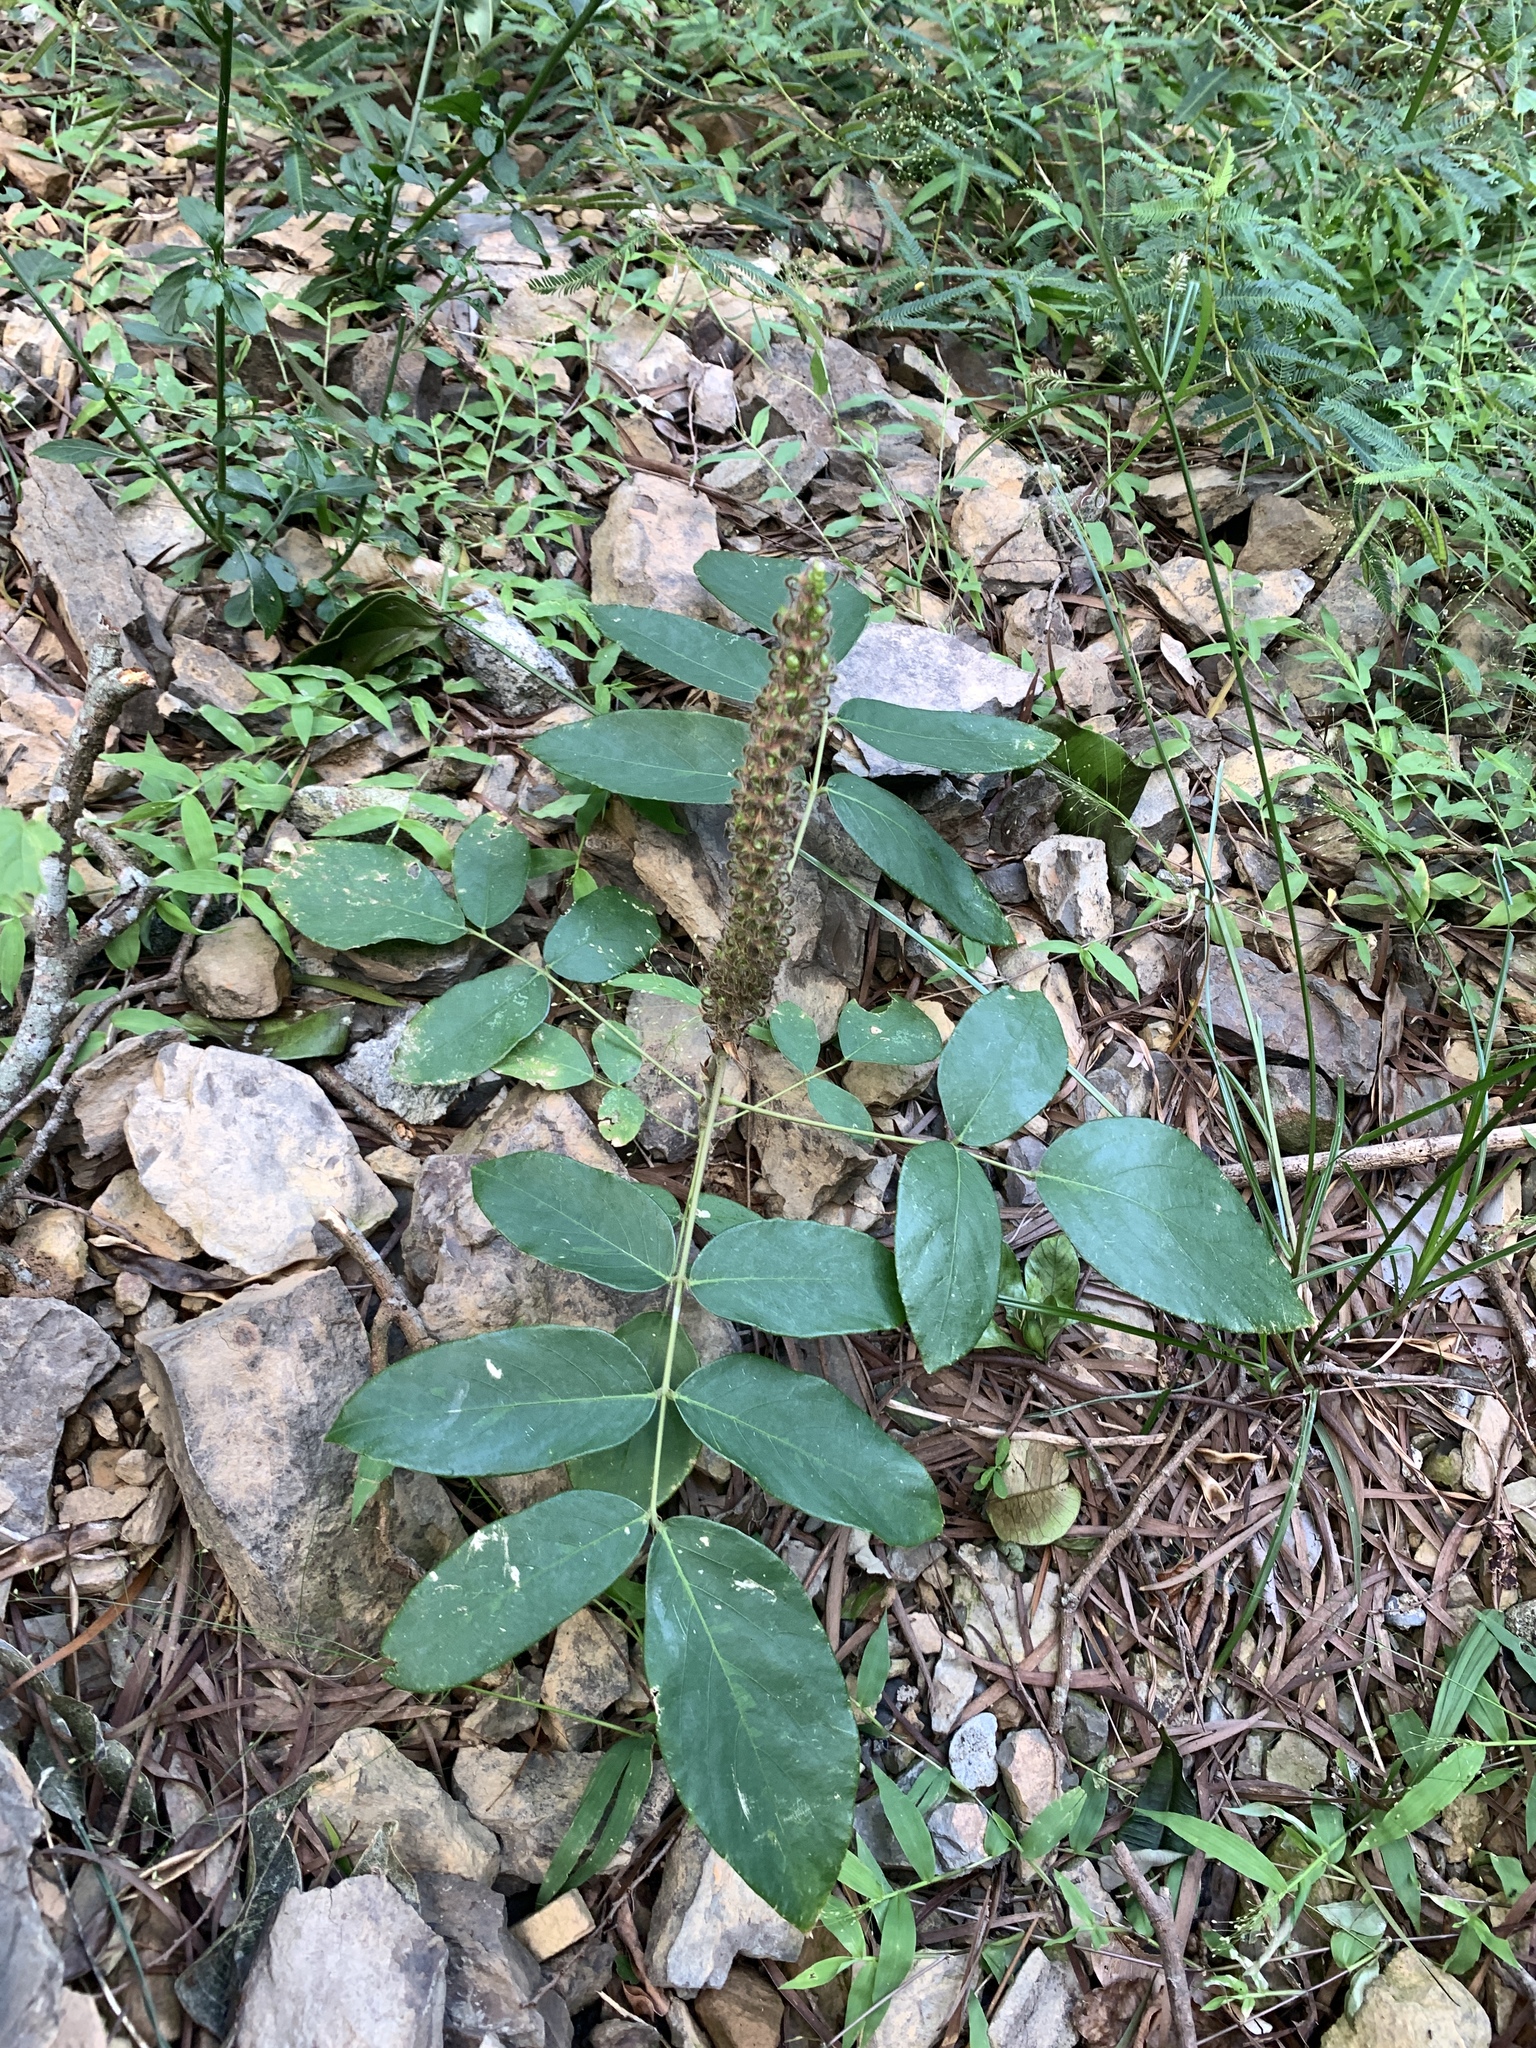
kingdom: Plantae
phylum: Tracheophyta
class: Magnoliopsida
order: Fabales
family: Fabaceae
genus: Uraria
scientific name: Uraria crinita
